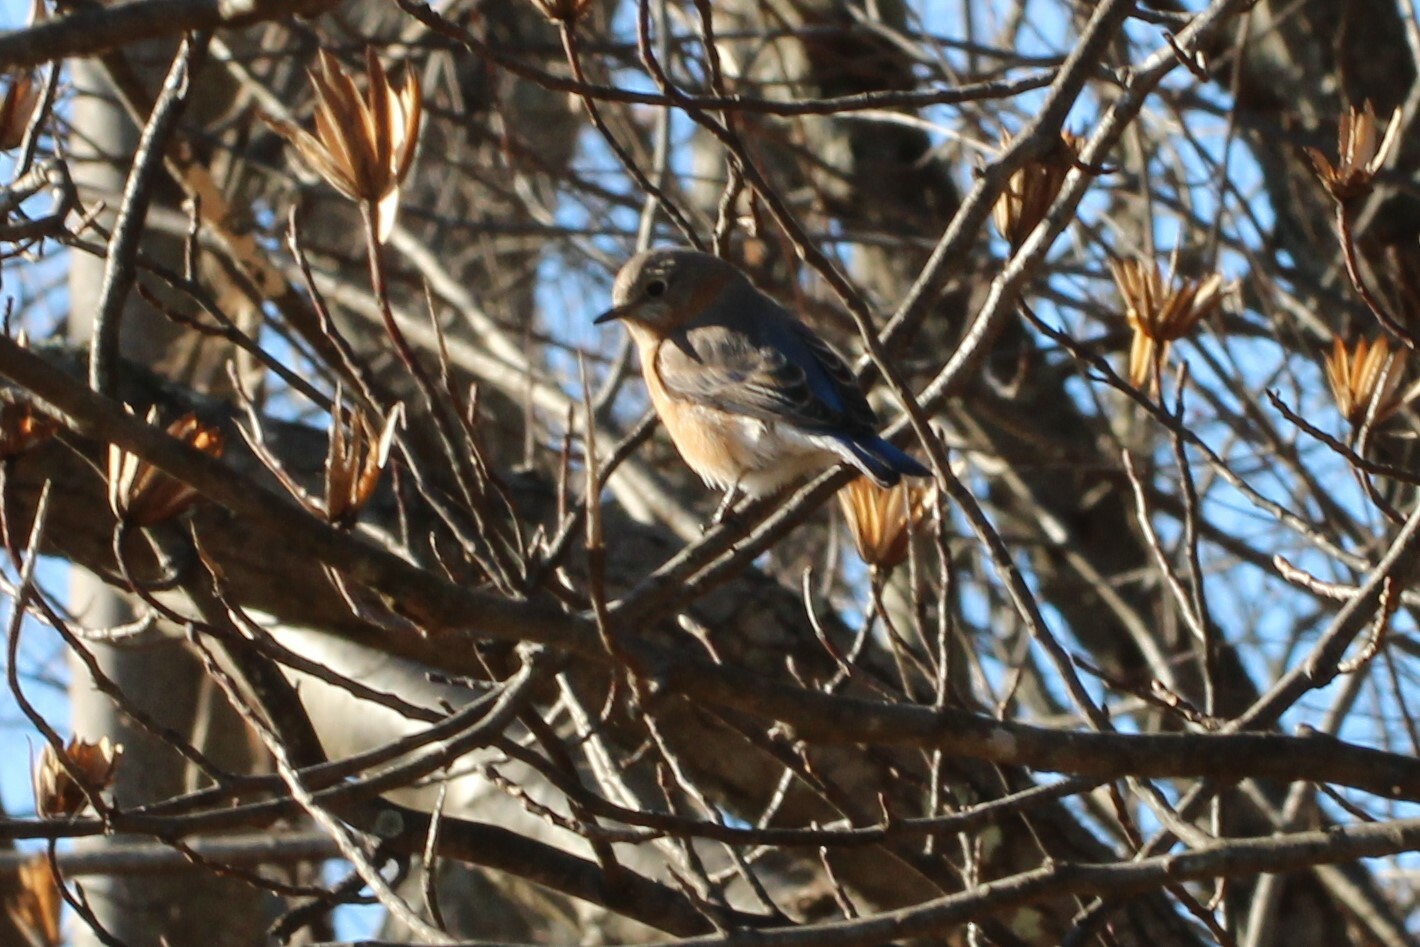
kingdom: Animalia
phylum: Chordata
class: Aves
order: Passeriformes
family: Turdidae
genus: Sialia
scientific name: Sialia sialis
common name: Eastern bluebird
